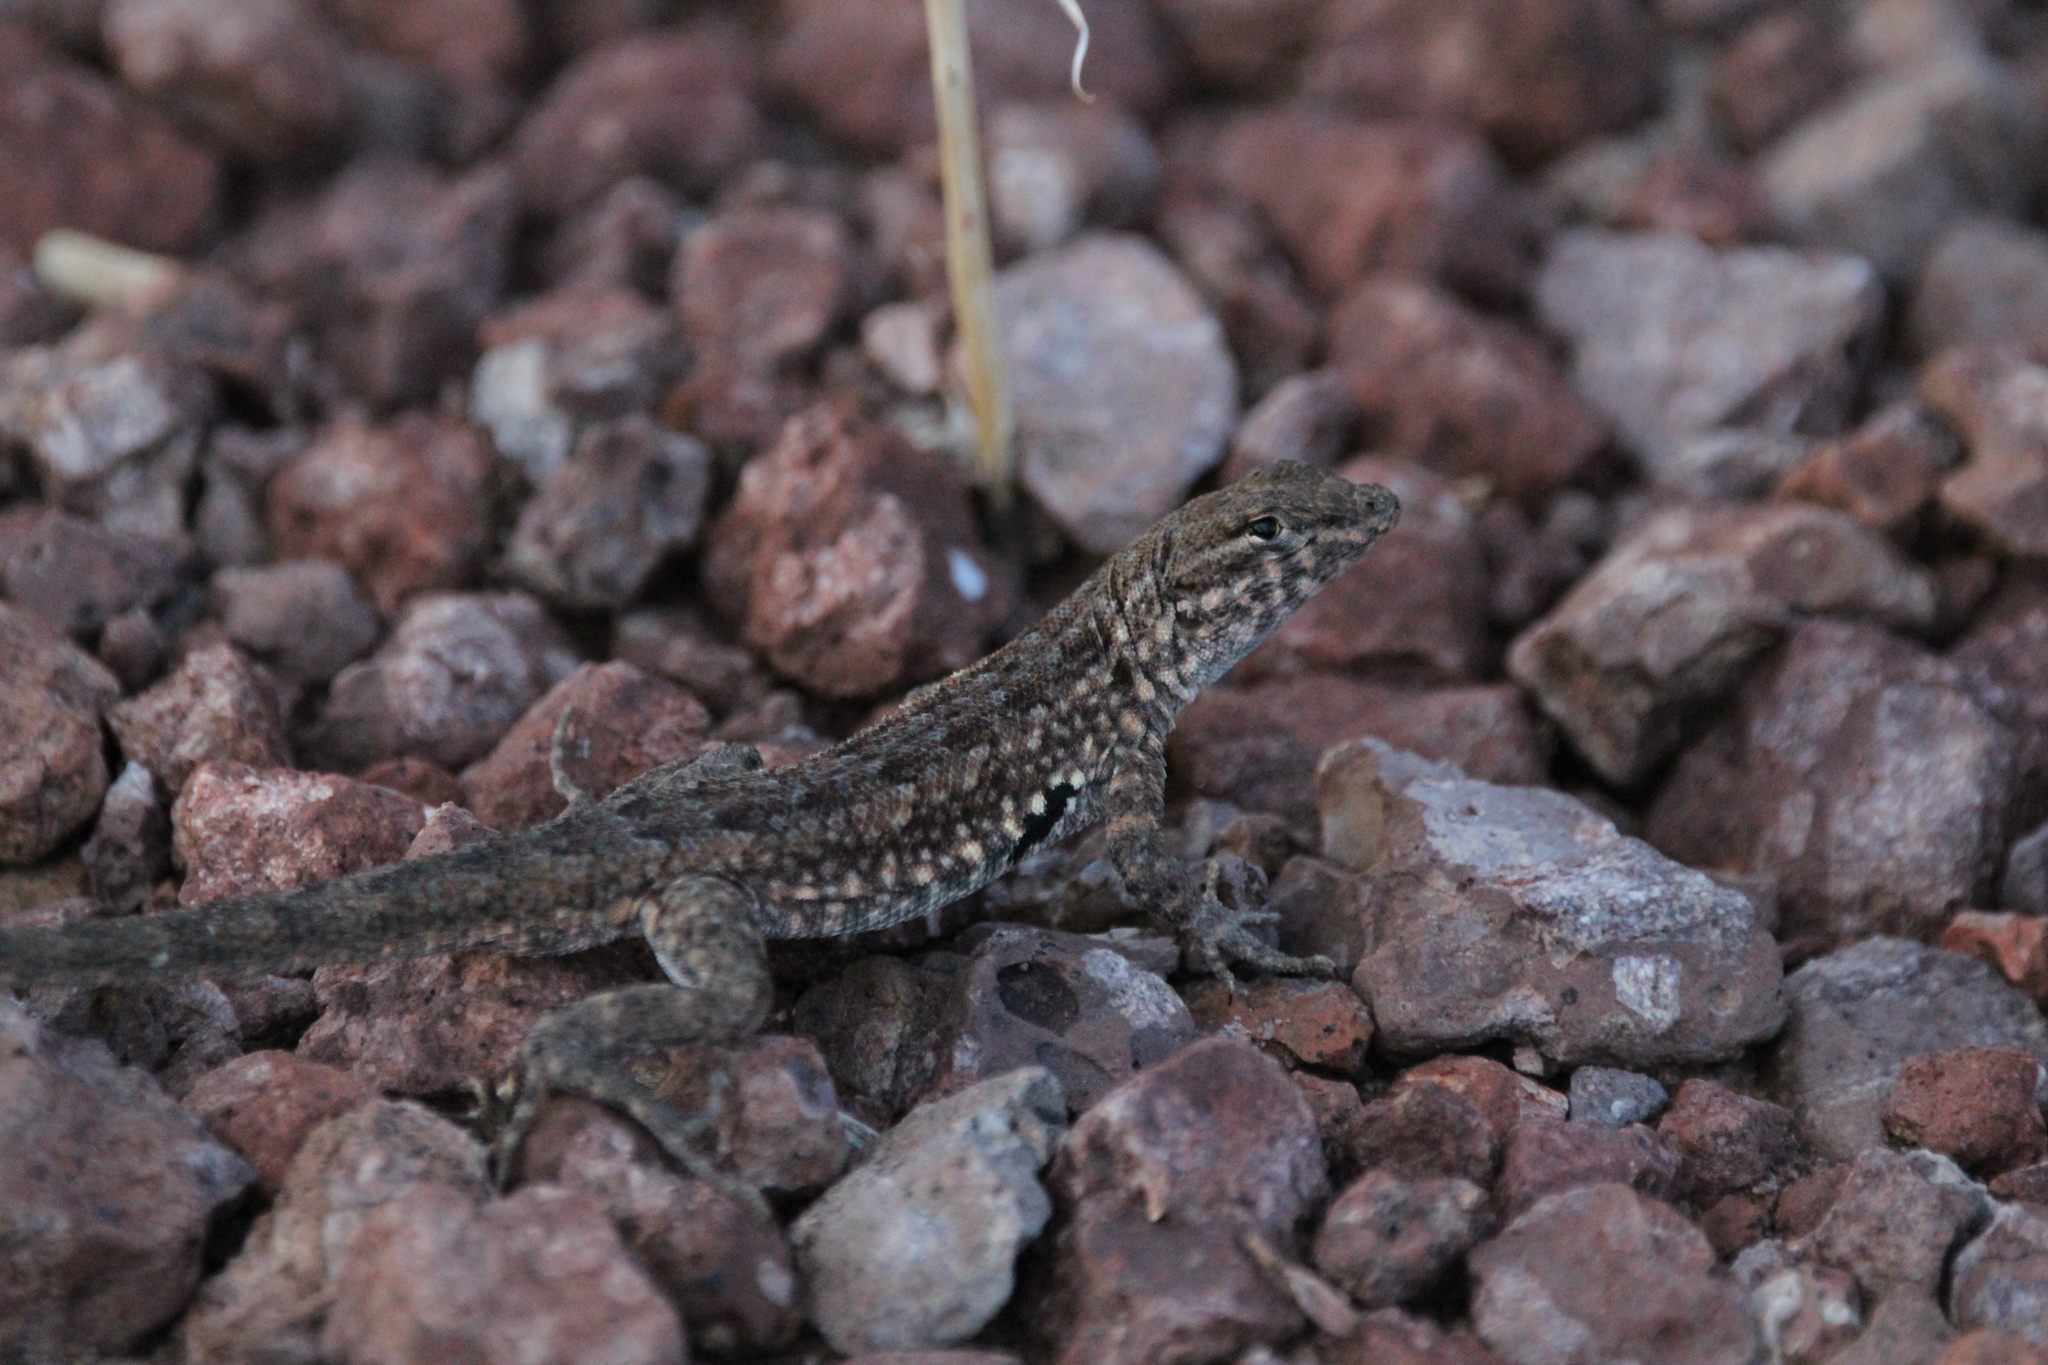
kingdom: Animalia
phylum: Chordata
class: Squamata
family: Phrynosomatidae
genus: Uta
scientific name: Uta stansburiana
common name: Side-blotched lizard
